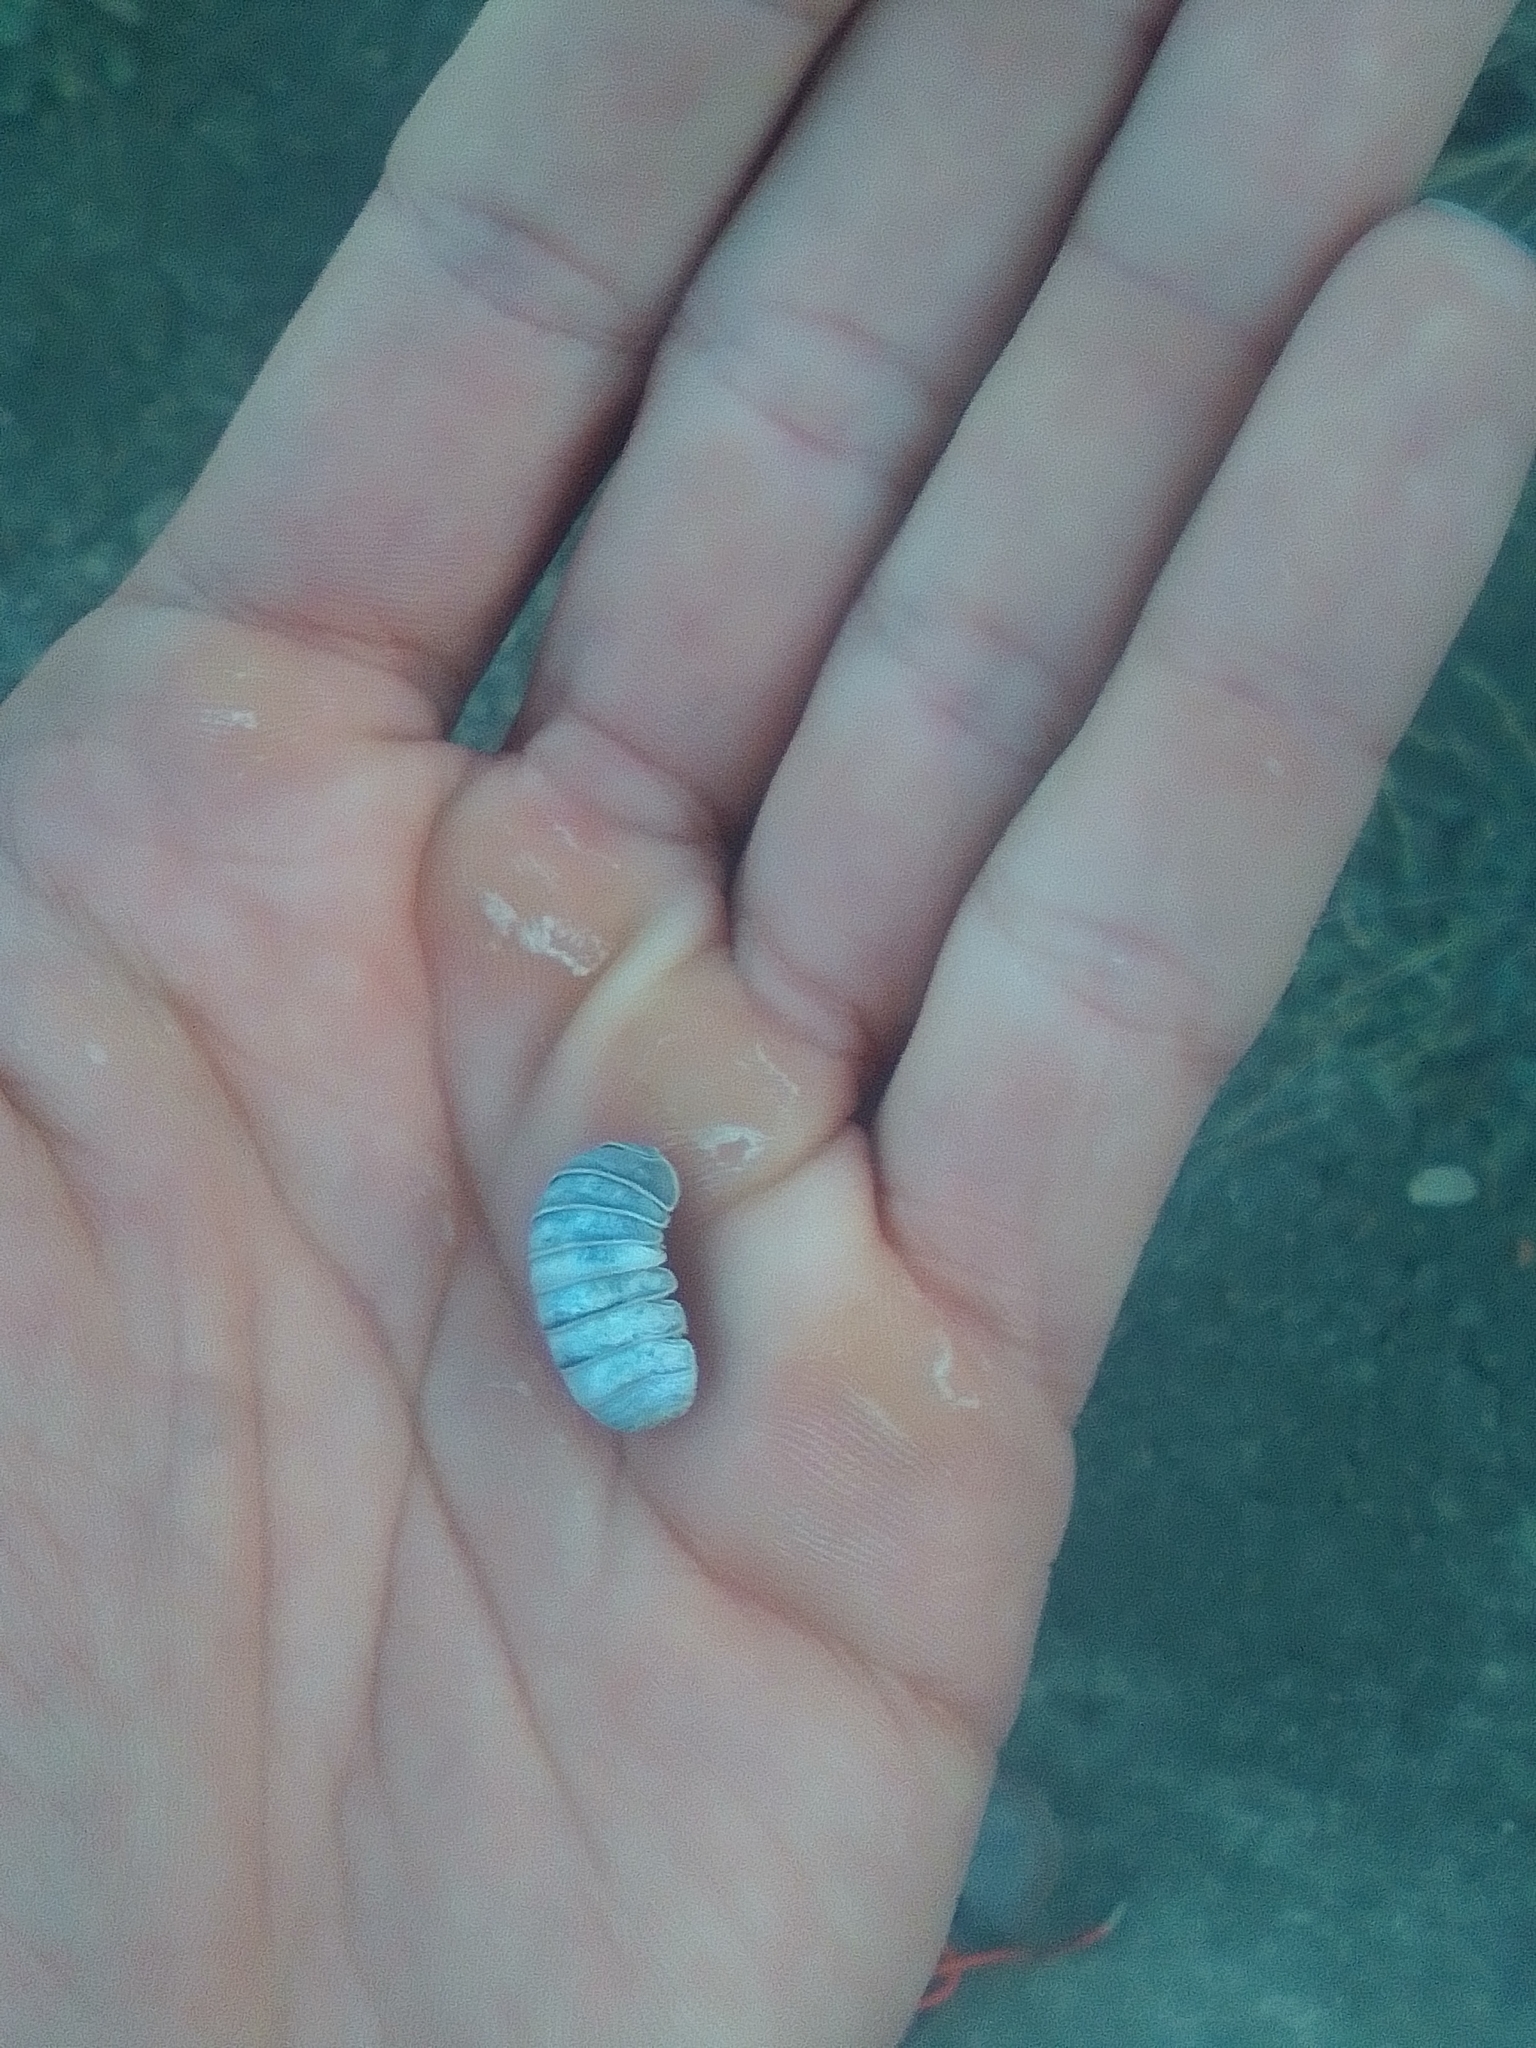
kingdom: Animalia
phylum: Arthropoda
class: Malacostraca
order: Isopoda
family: Armadillidae
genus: Armadillo
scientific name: Armadillo officinalis
